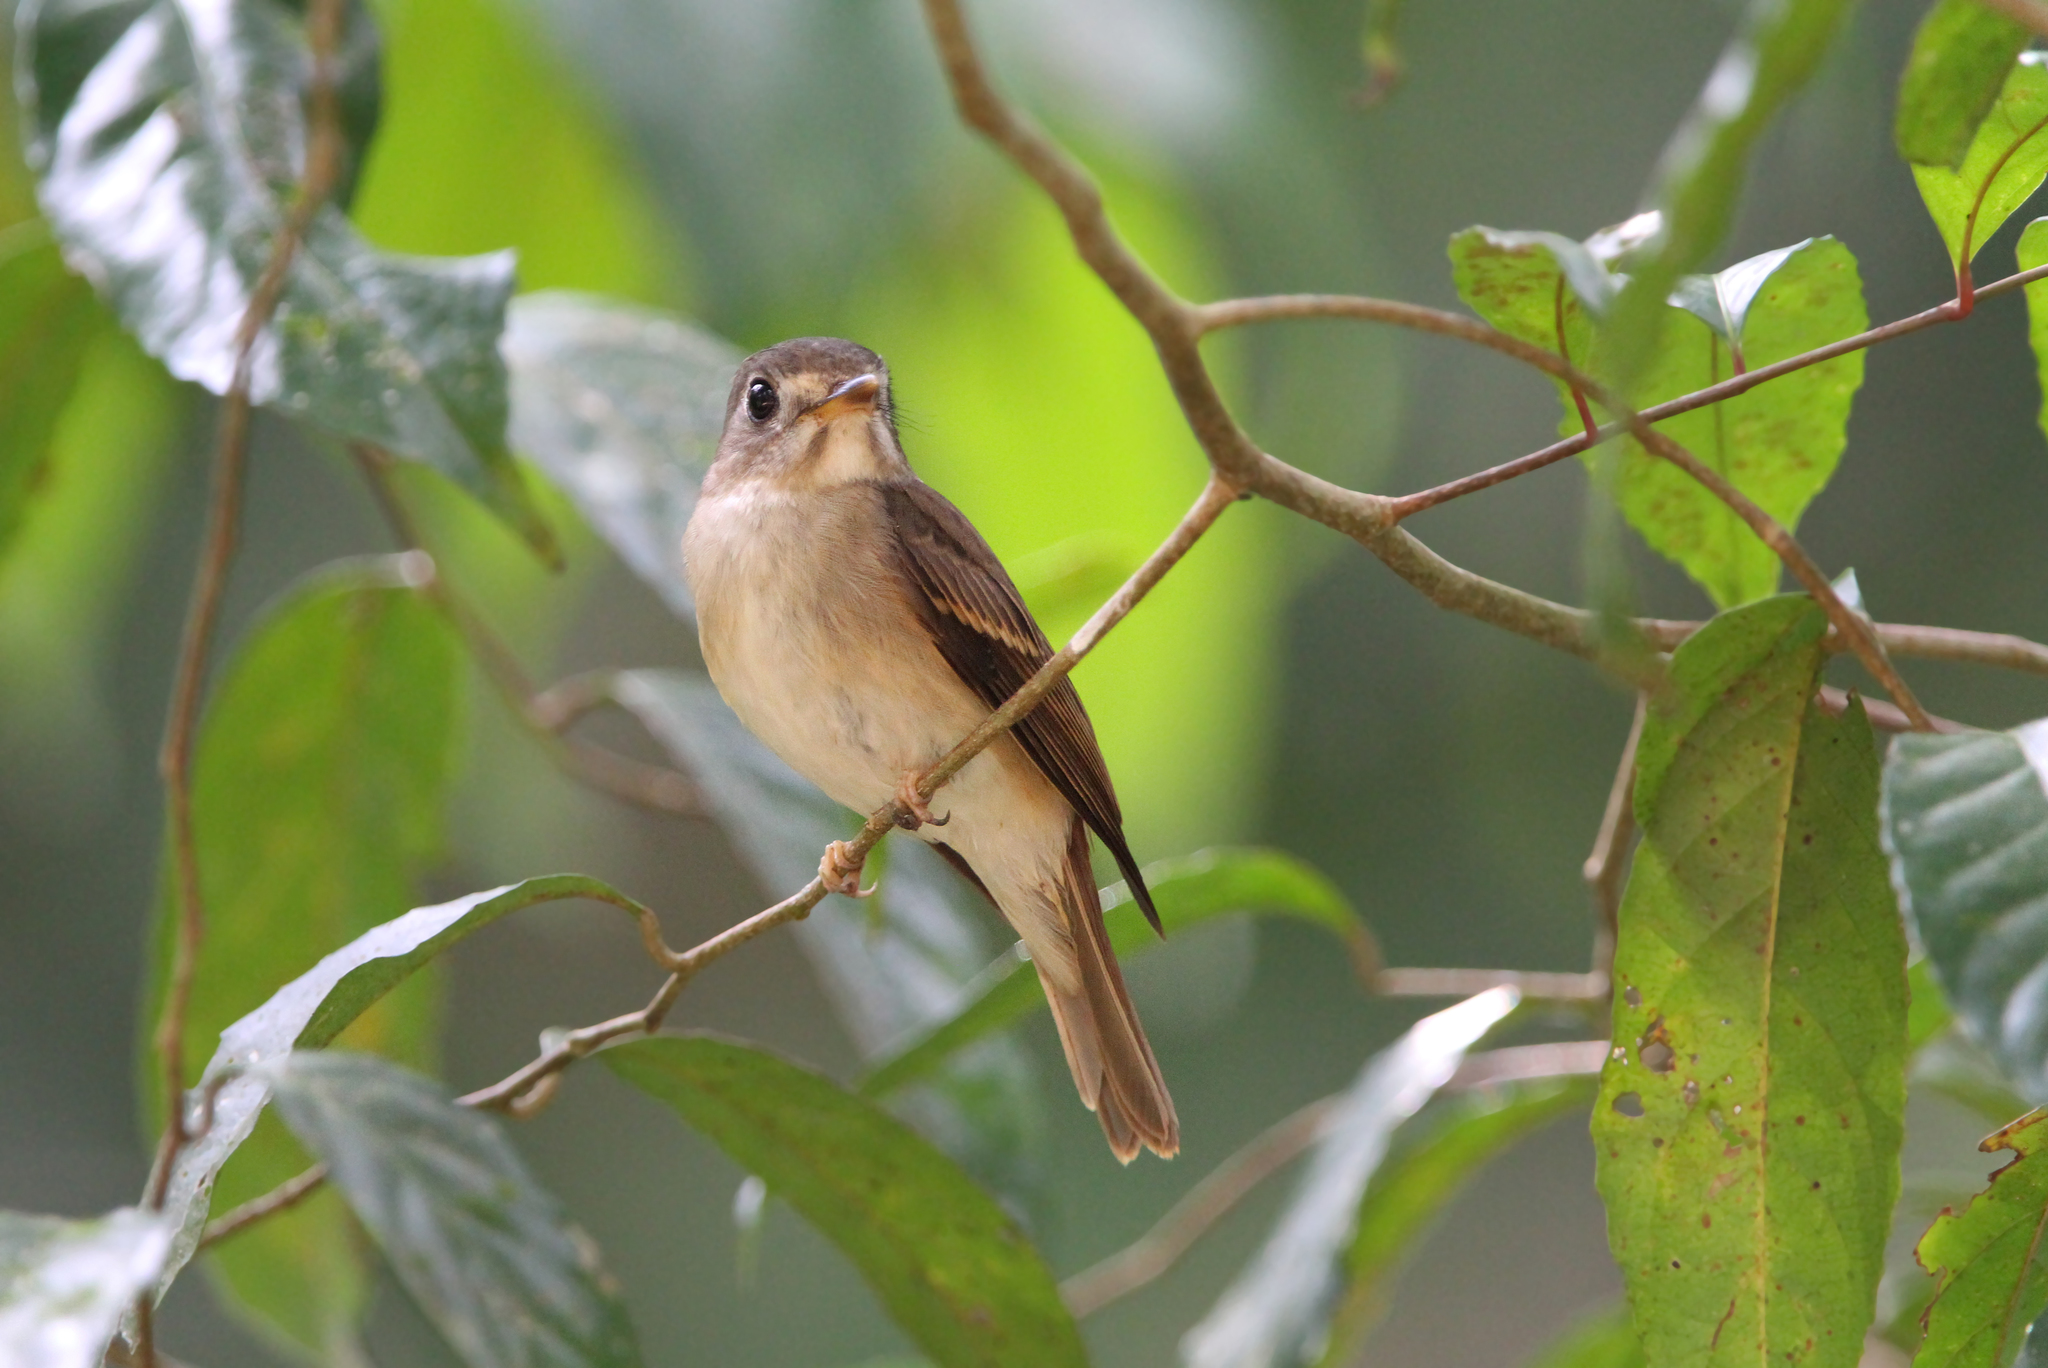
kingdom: Animalia
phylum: Chordata
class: Aves
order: Passeriformes
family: Muscicapidae
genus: Muscicapa
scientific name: Muscicapa muttui
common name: Brown-breasted flycatcher
